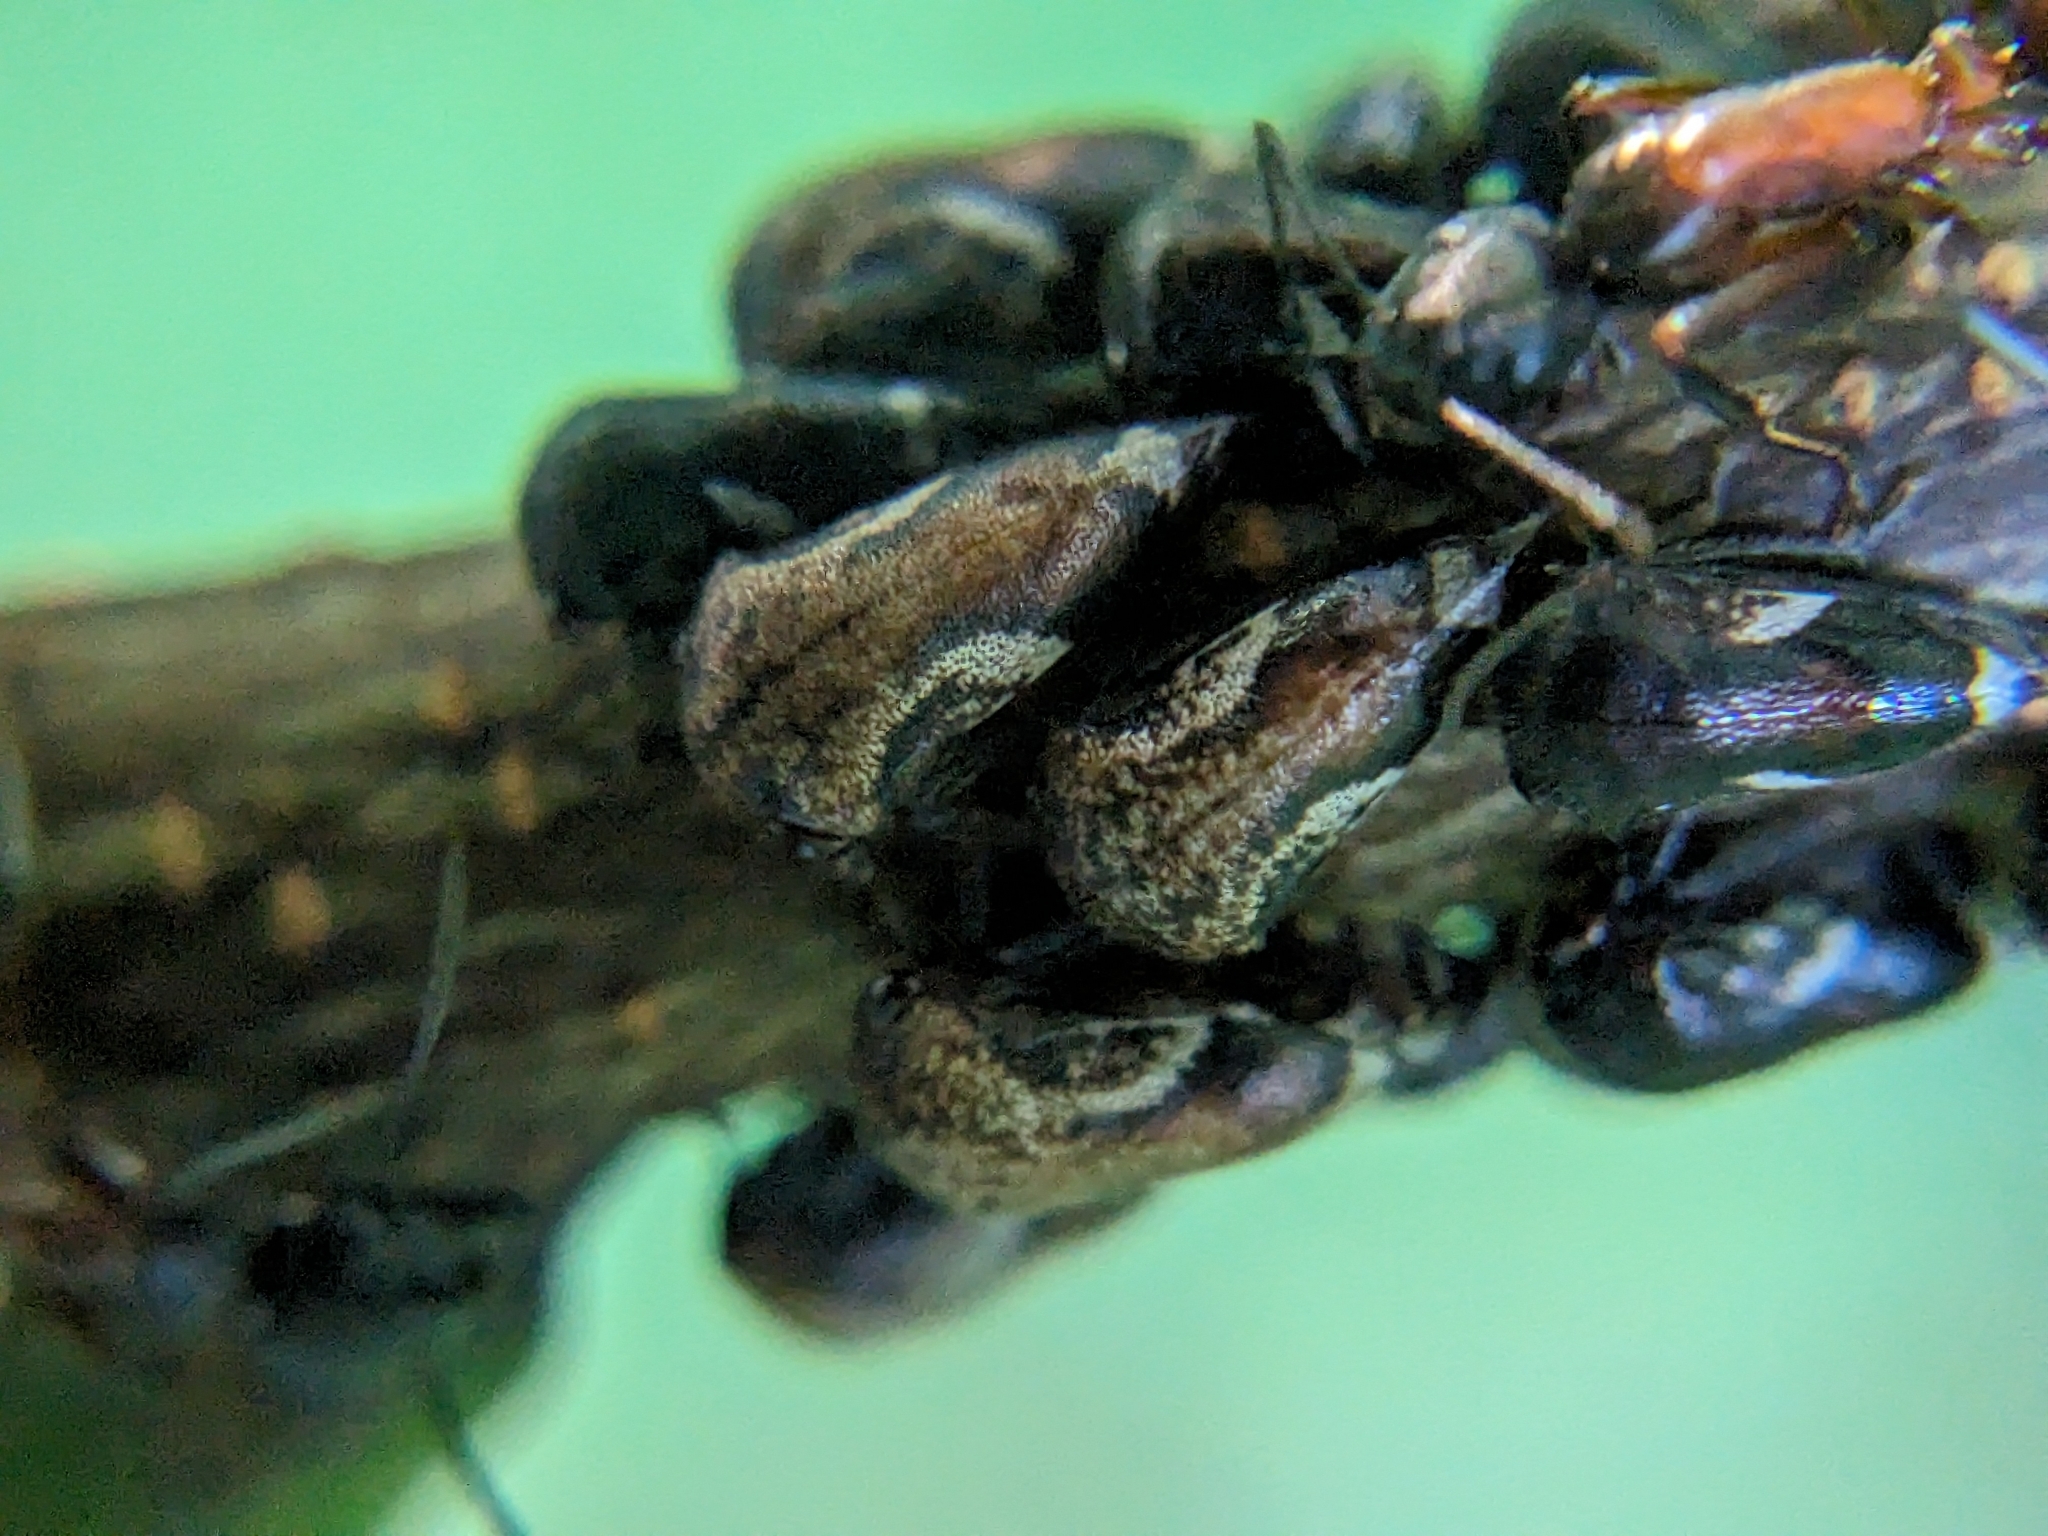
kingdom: Animalia
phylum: Arthropoda
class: Insecta
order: Hemiptera
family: Membracidae
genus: Vanduzea
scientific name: Vanduzea arquata
